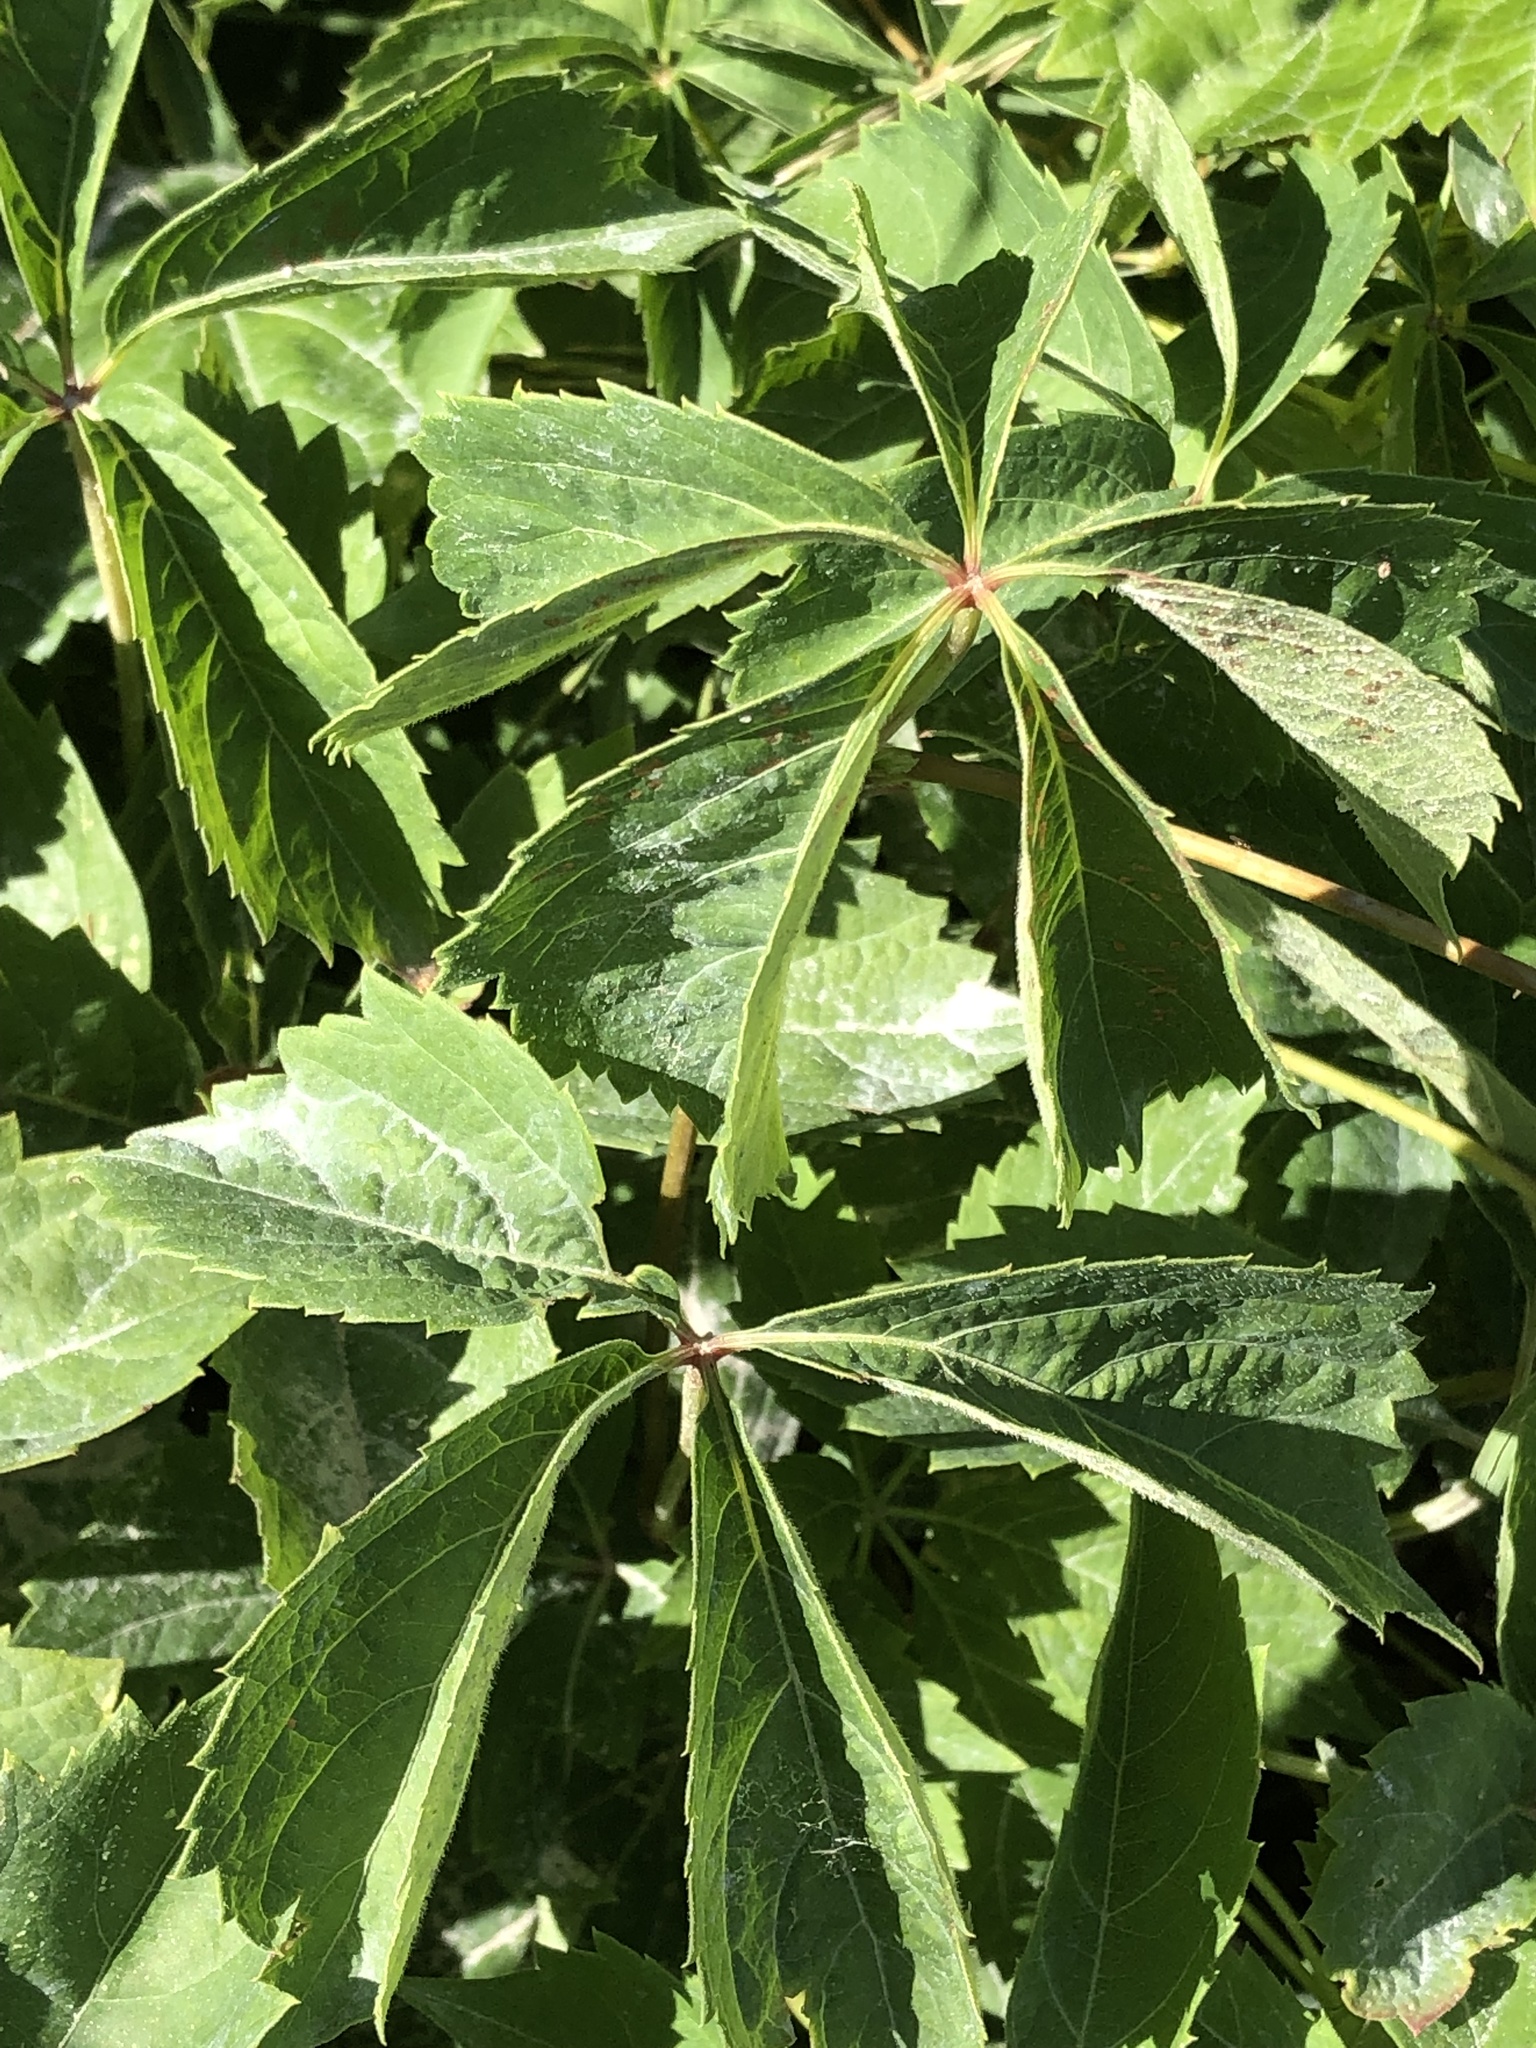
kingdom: Plantae
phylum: Tracheophyta
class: Magnoliopsida
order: Vitales
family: Vitaceae
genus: Parthenocissus
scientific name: Parthenocissus quinquefolia
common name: Virginia-creeper
